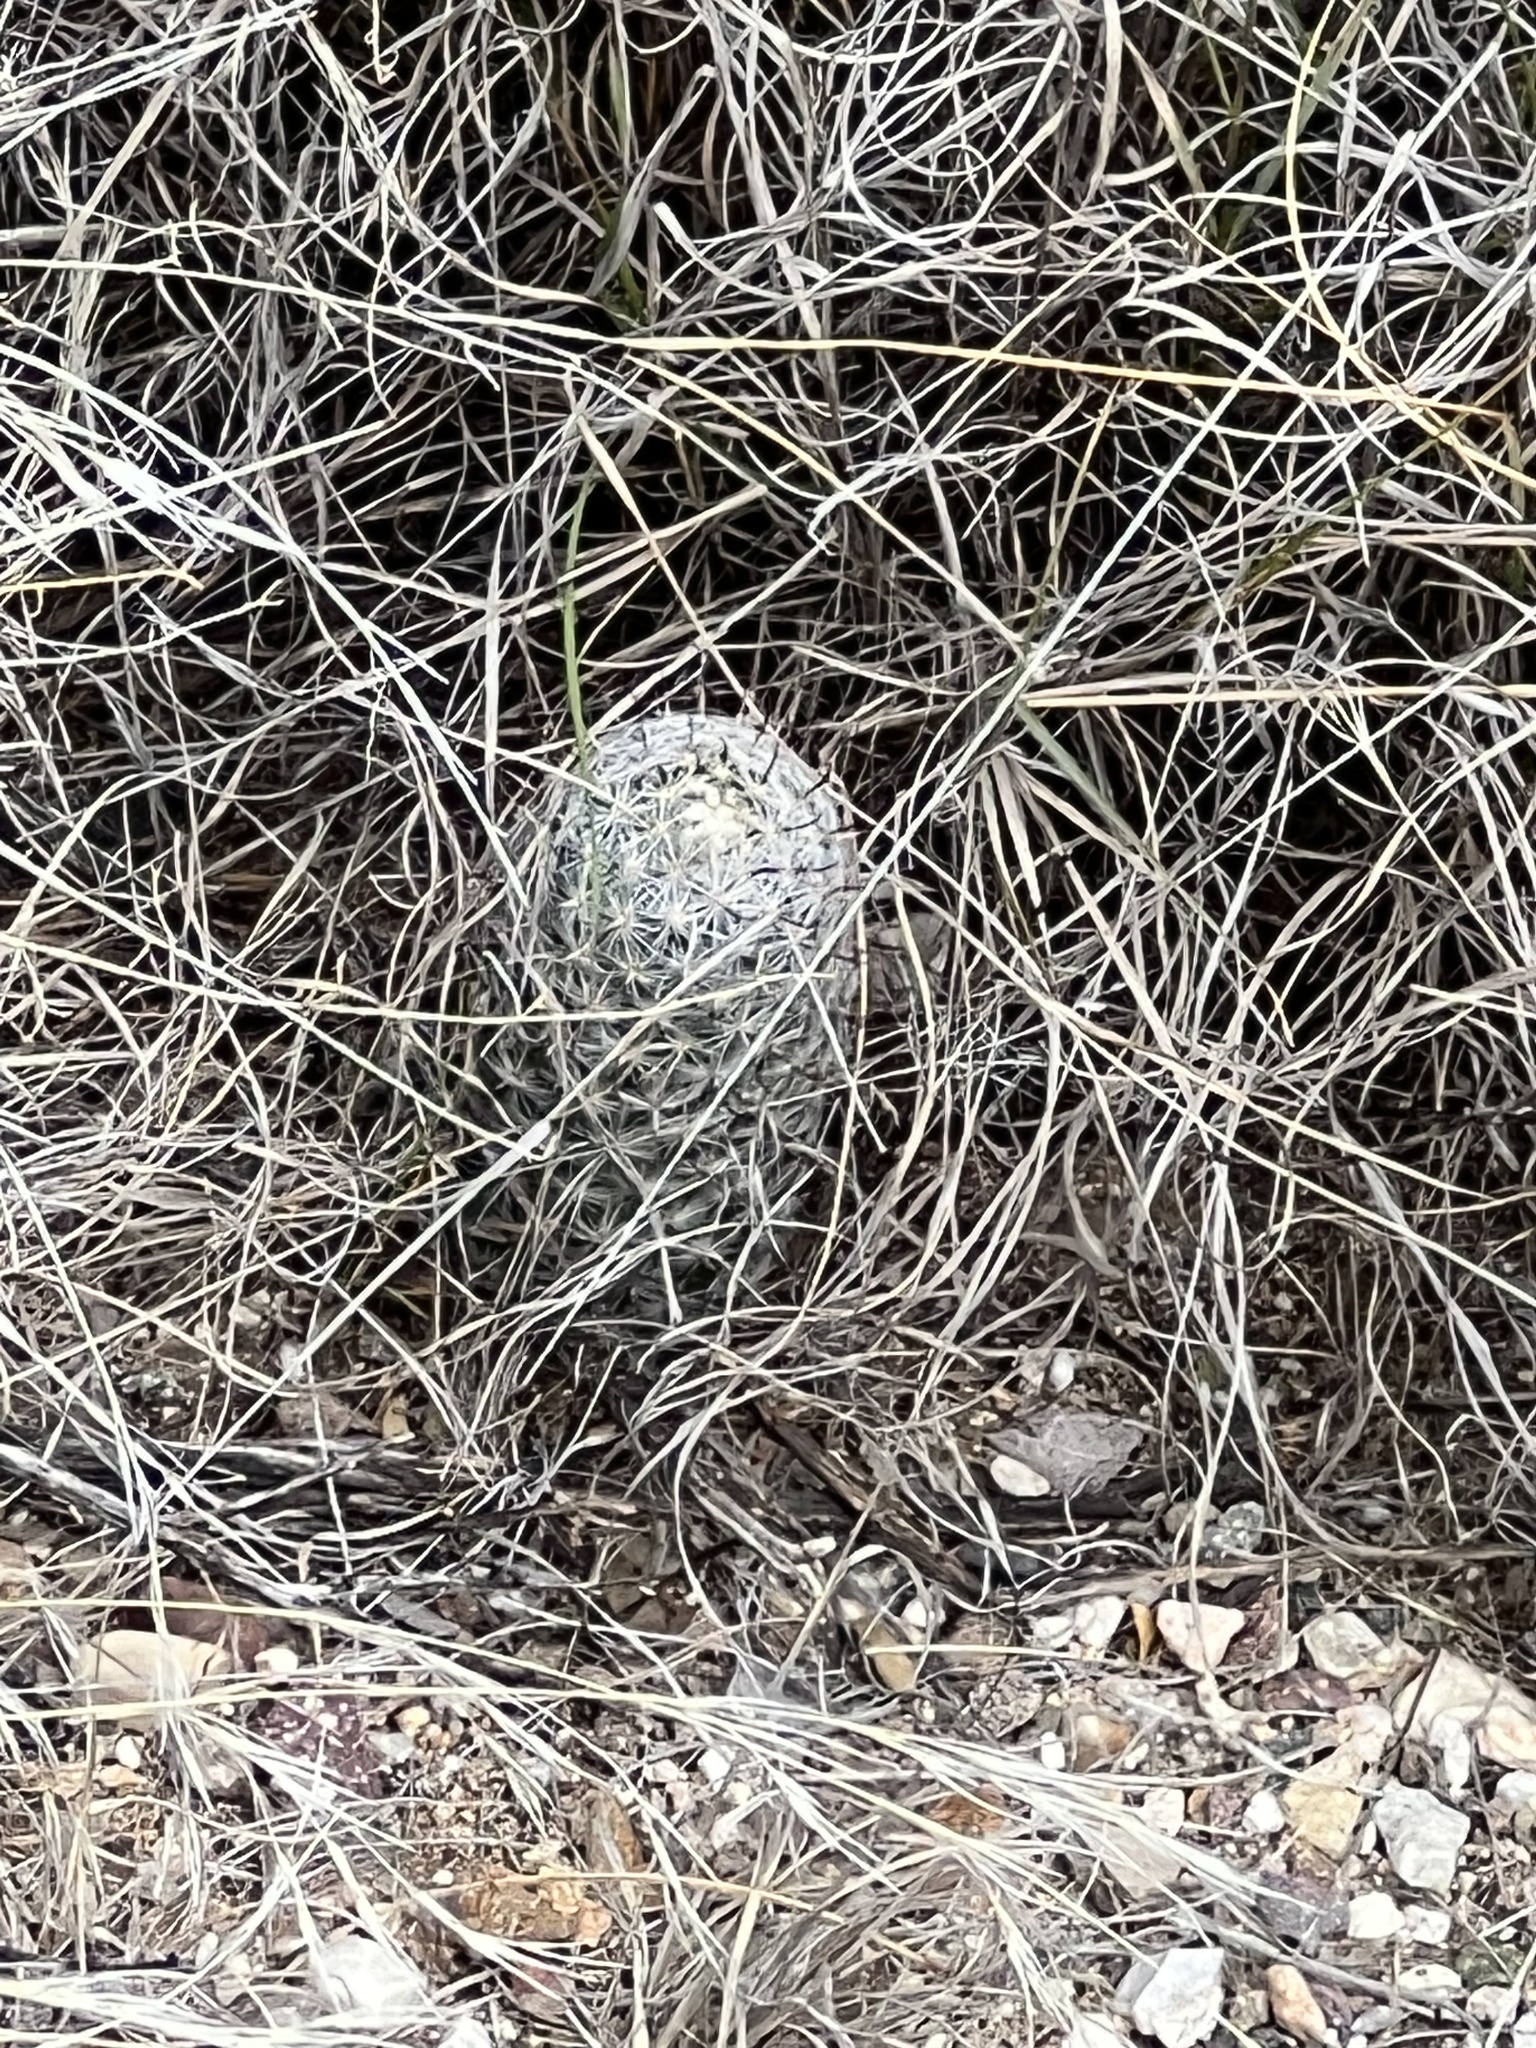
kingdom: Plantae
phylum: Tracheophyta
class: Magnoliopsida
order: Caryophyllales
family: Cactaceae
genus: Cochemiea
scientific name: Cochemiea grahamii
